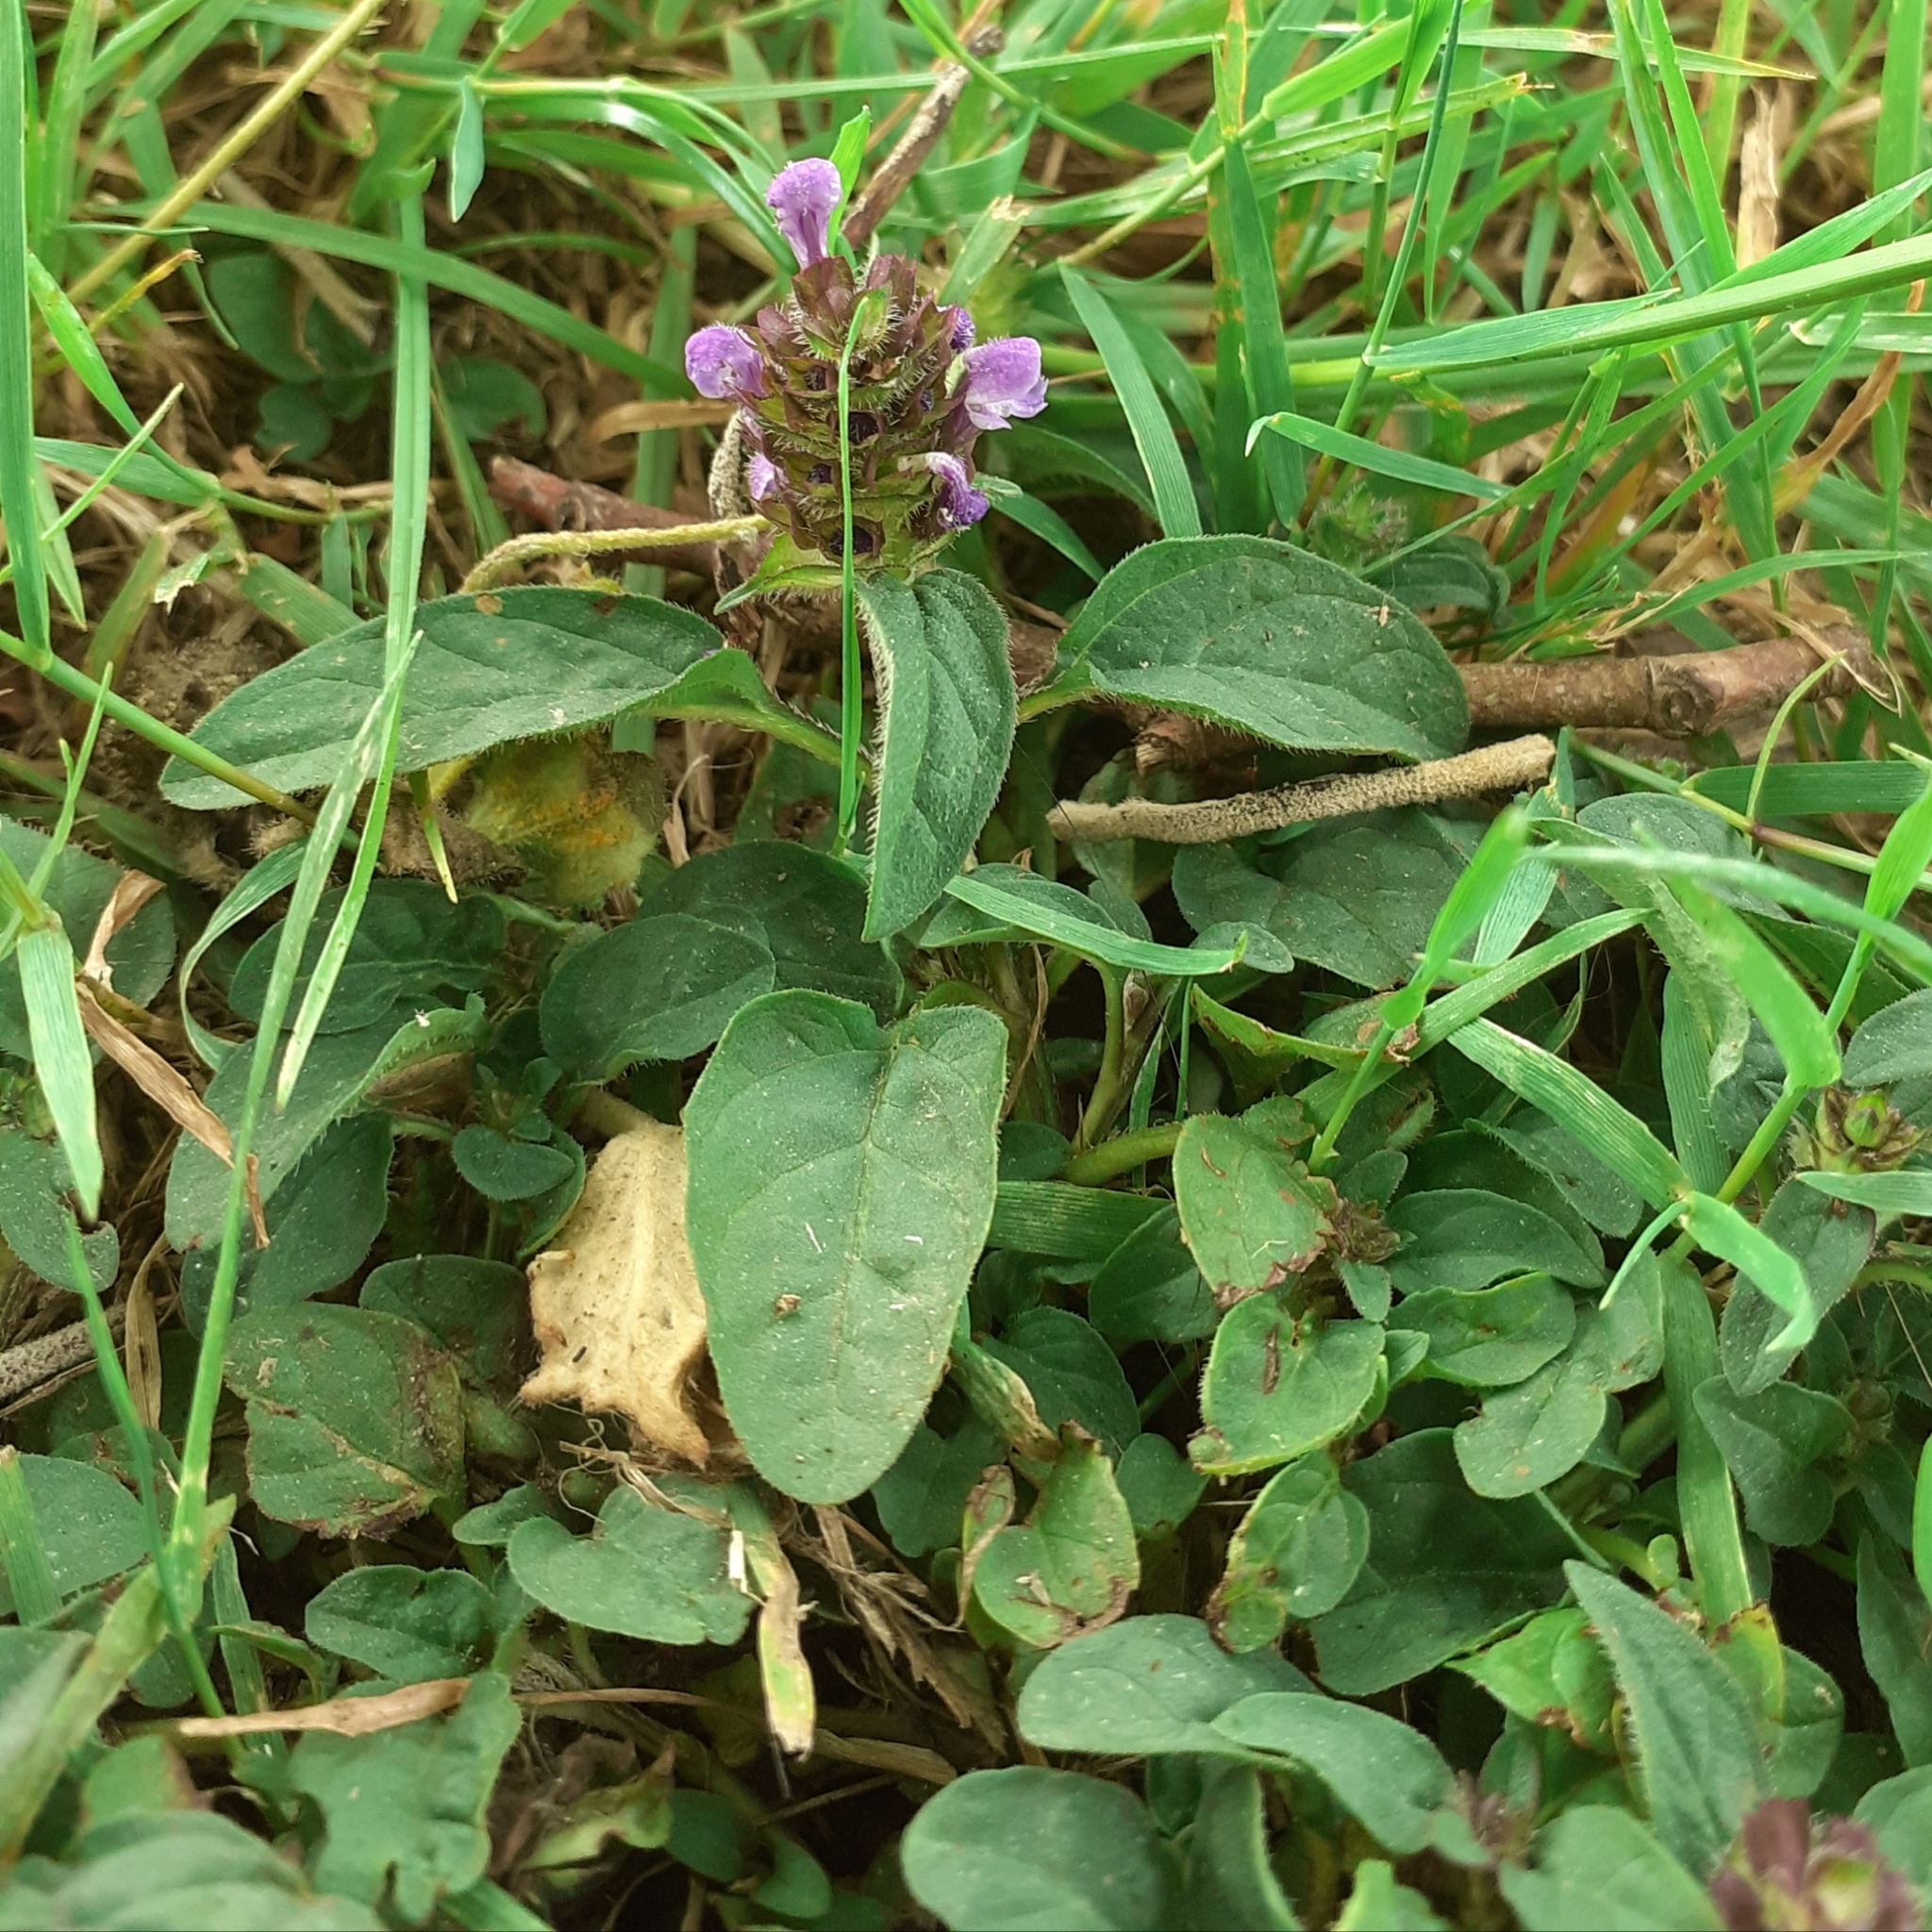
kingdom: Plantae
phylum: Tracheophyta
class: Magnoliopsida
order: Lamiales
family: Lamiaceae
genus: Prunella
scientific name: Prunella vulgaris
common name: Heal-all
